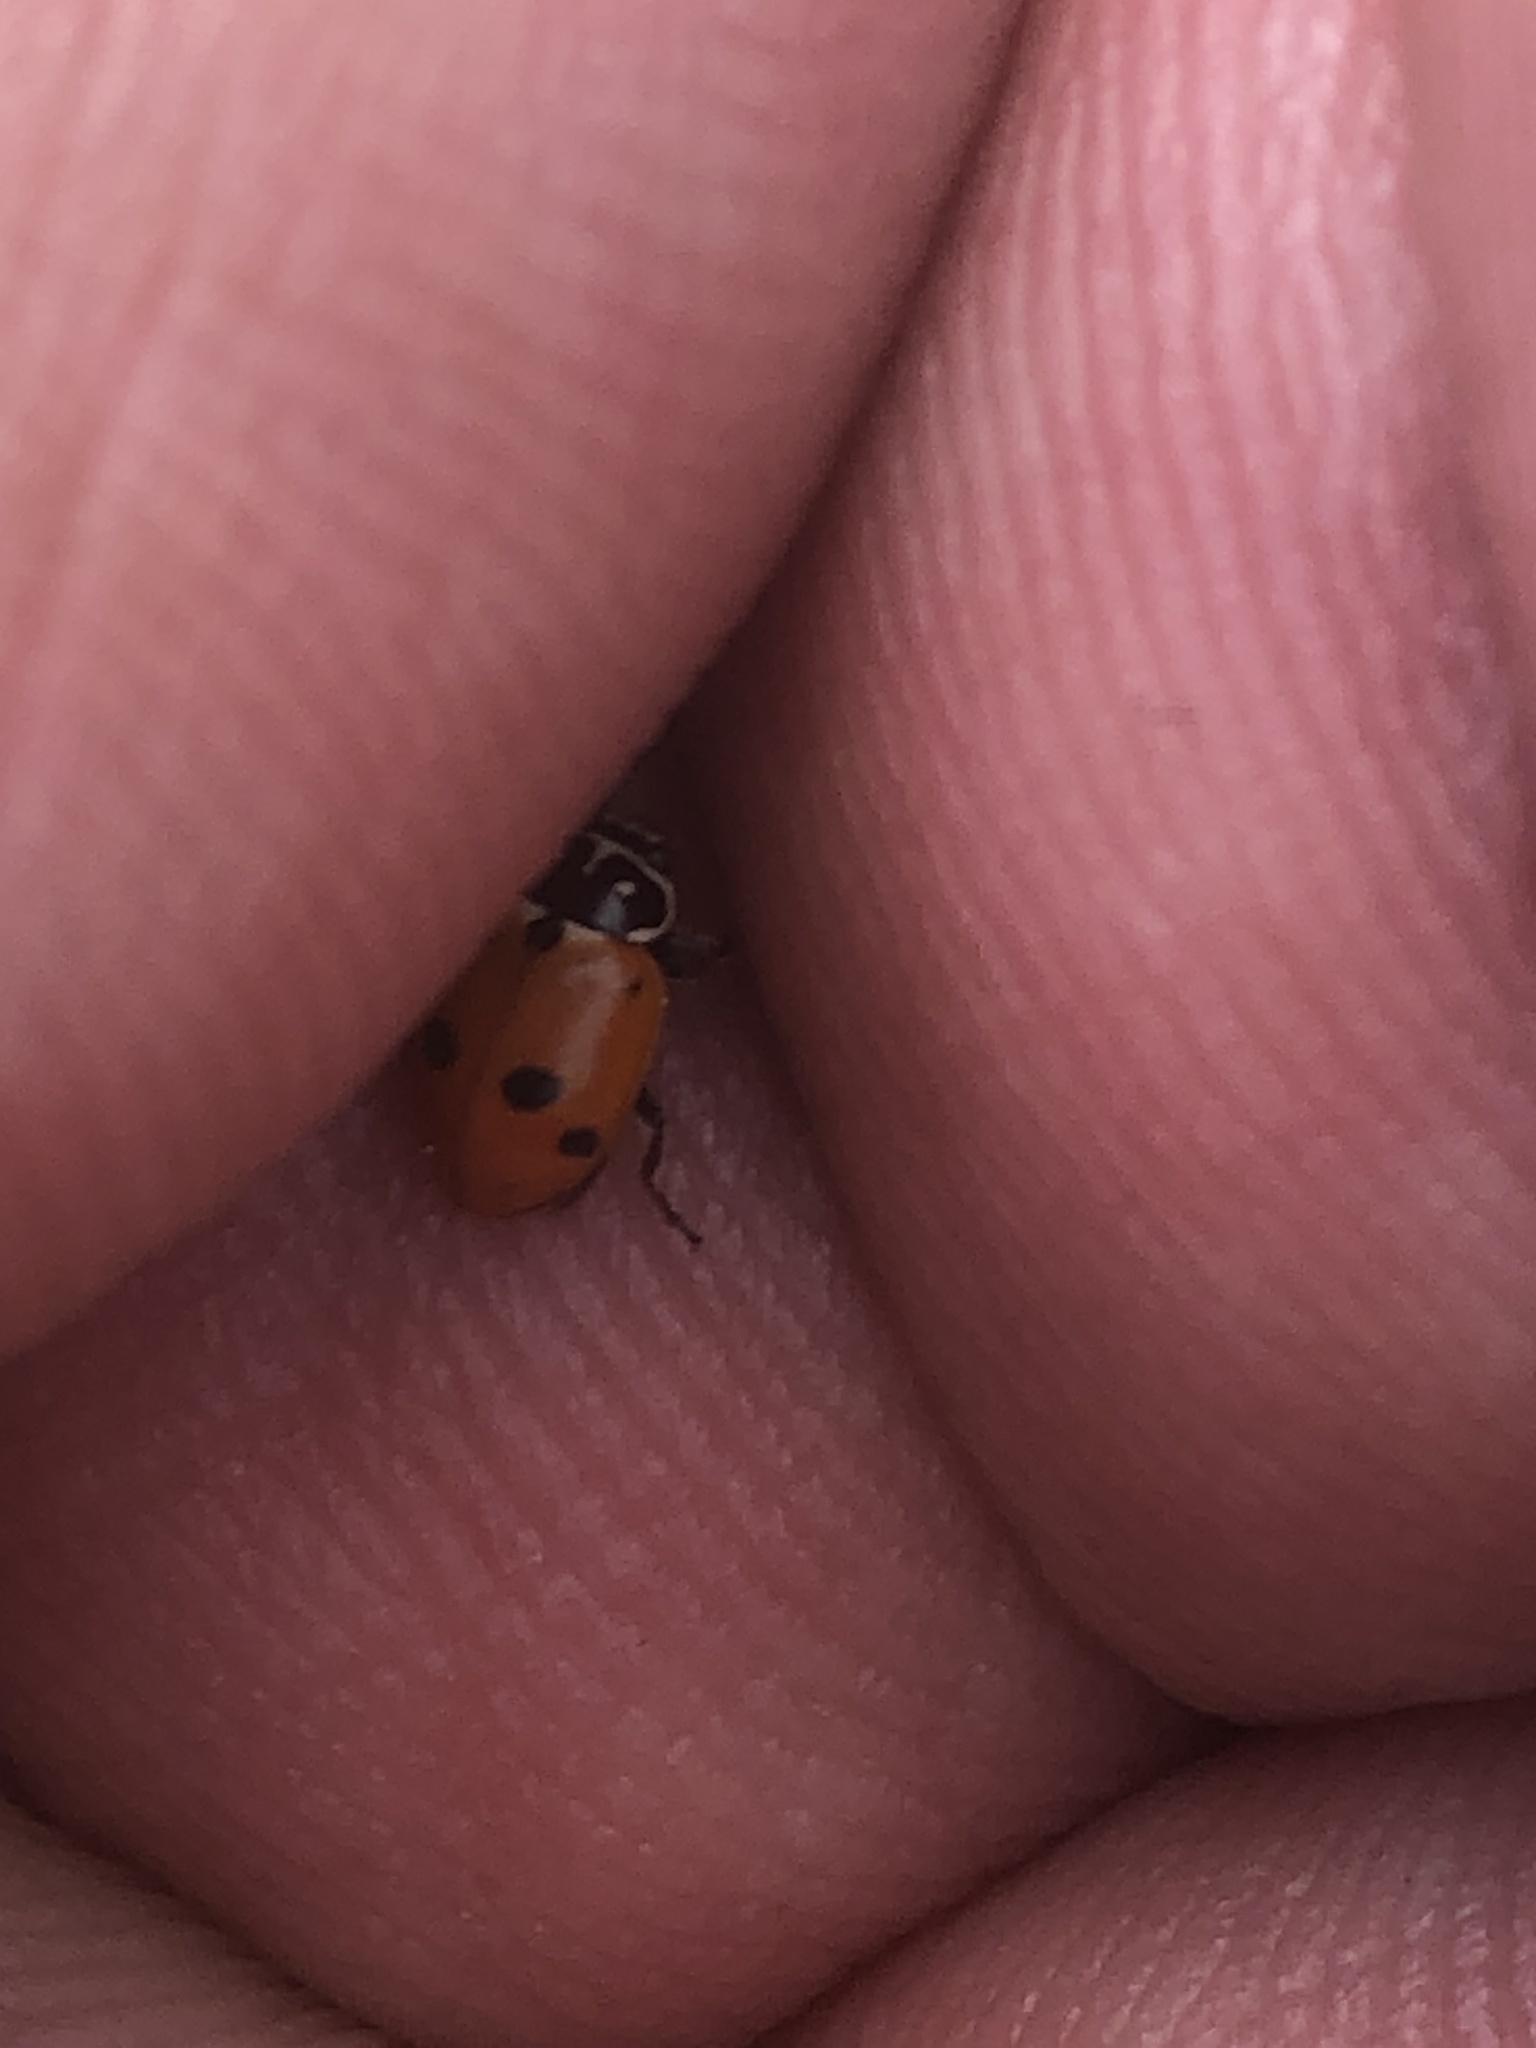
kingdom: Animalia
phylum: Arthropoda
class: Insecta
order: Coleoptera
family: Coccinellidae
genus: Hippodamia
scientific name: Hippodamia variegata
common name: Ladybird beetle
